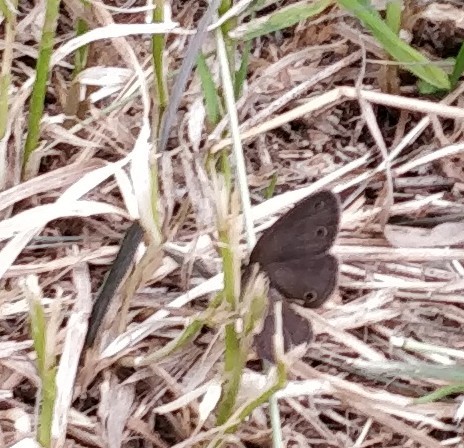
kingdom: Animalia
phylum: Arthropoda
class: Insecta
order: Lepidoptera
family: Nymphalidae
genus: Euptychia
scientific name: Euptychia cymela
